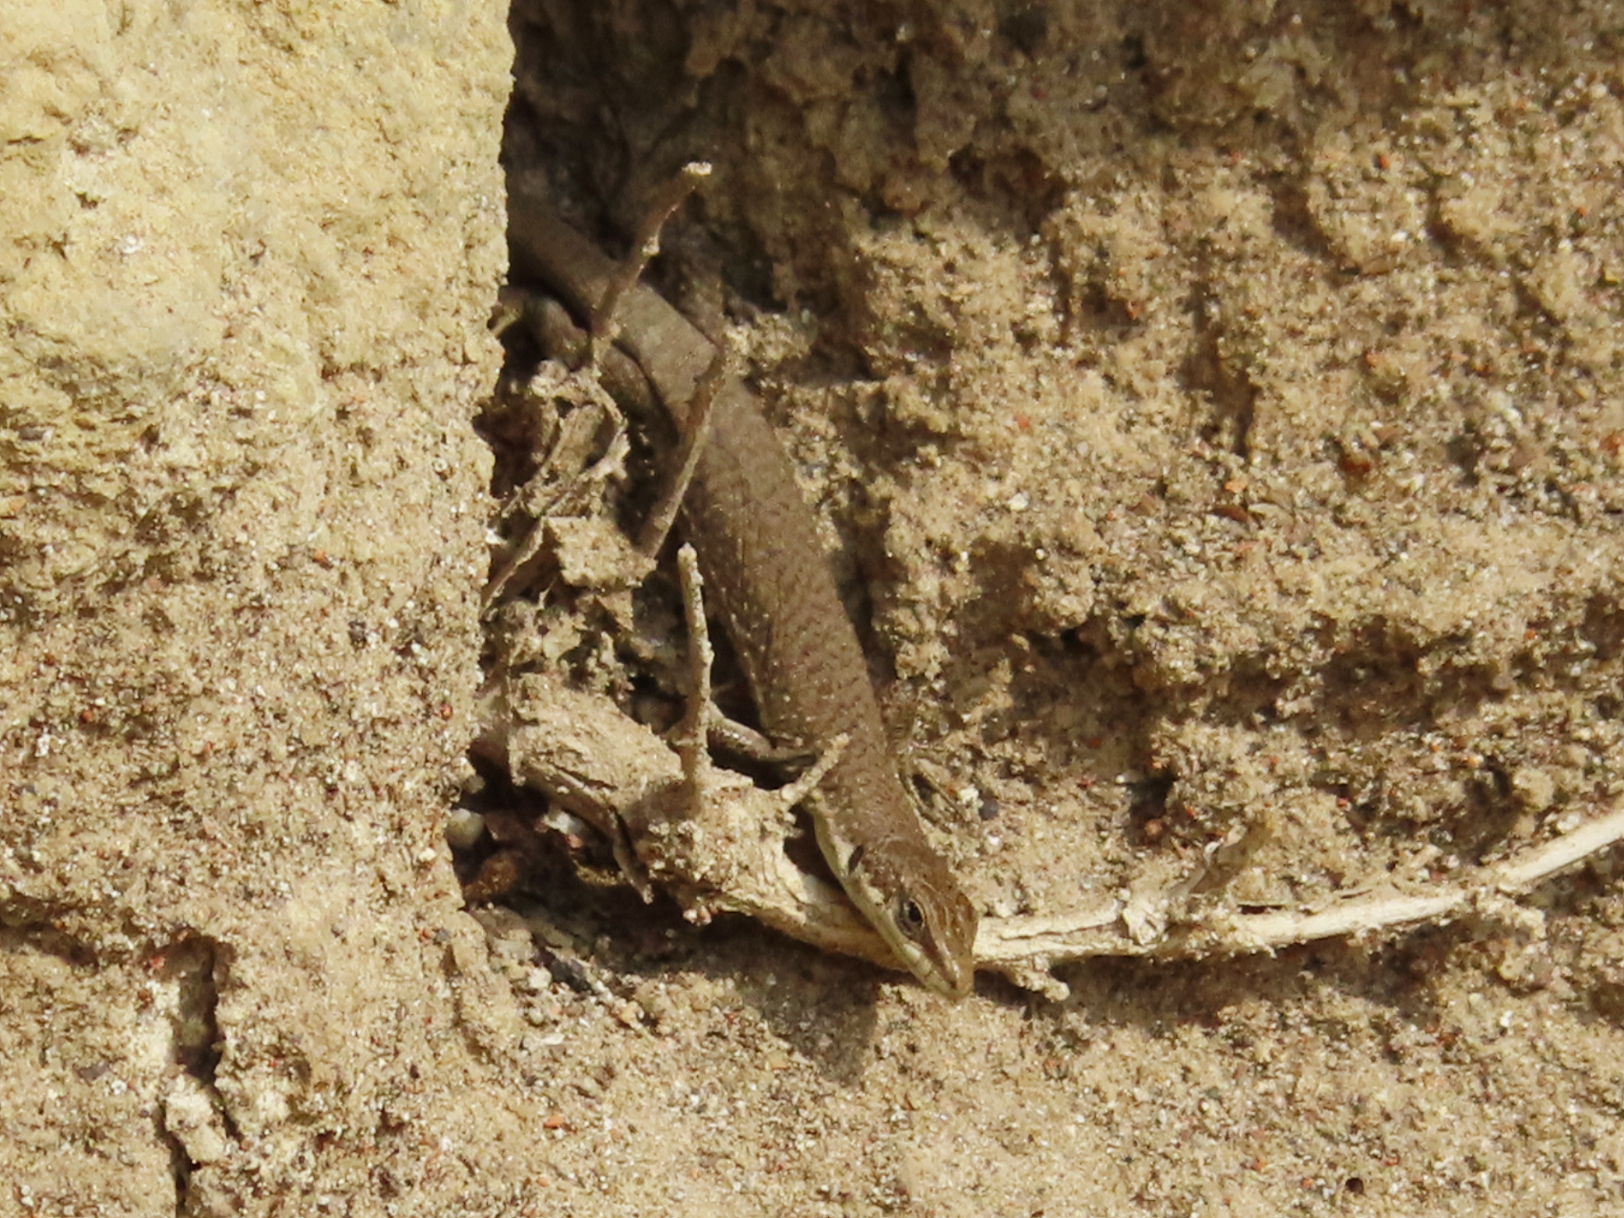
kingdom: Animalia
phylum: Chordata
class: Squamata
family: Lacertidae
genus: Darevskia
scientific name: Darevskia portschinskii
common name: River kura lizard
